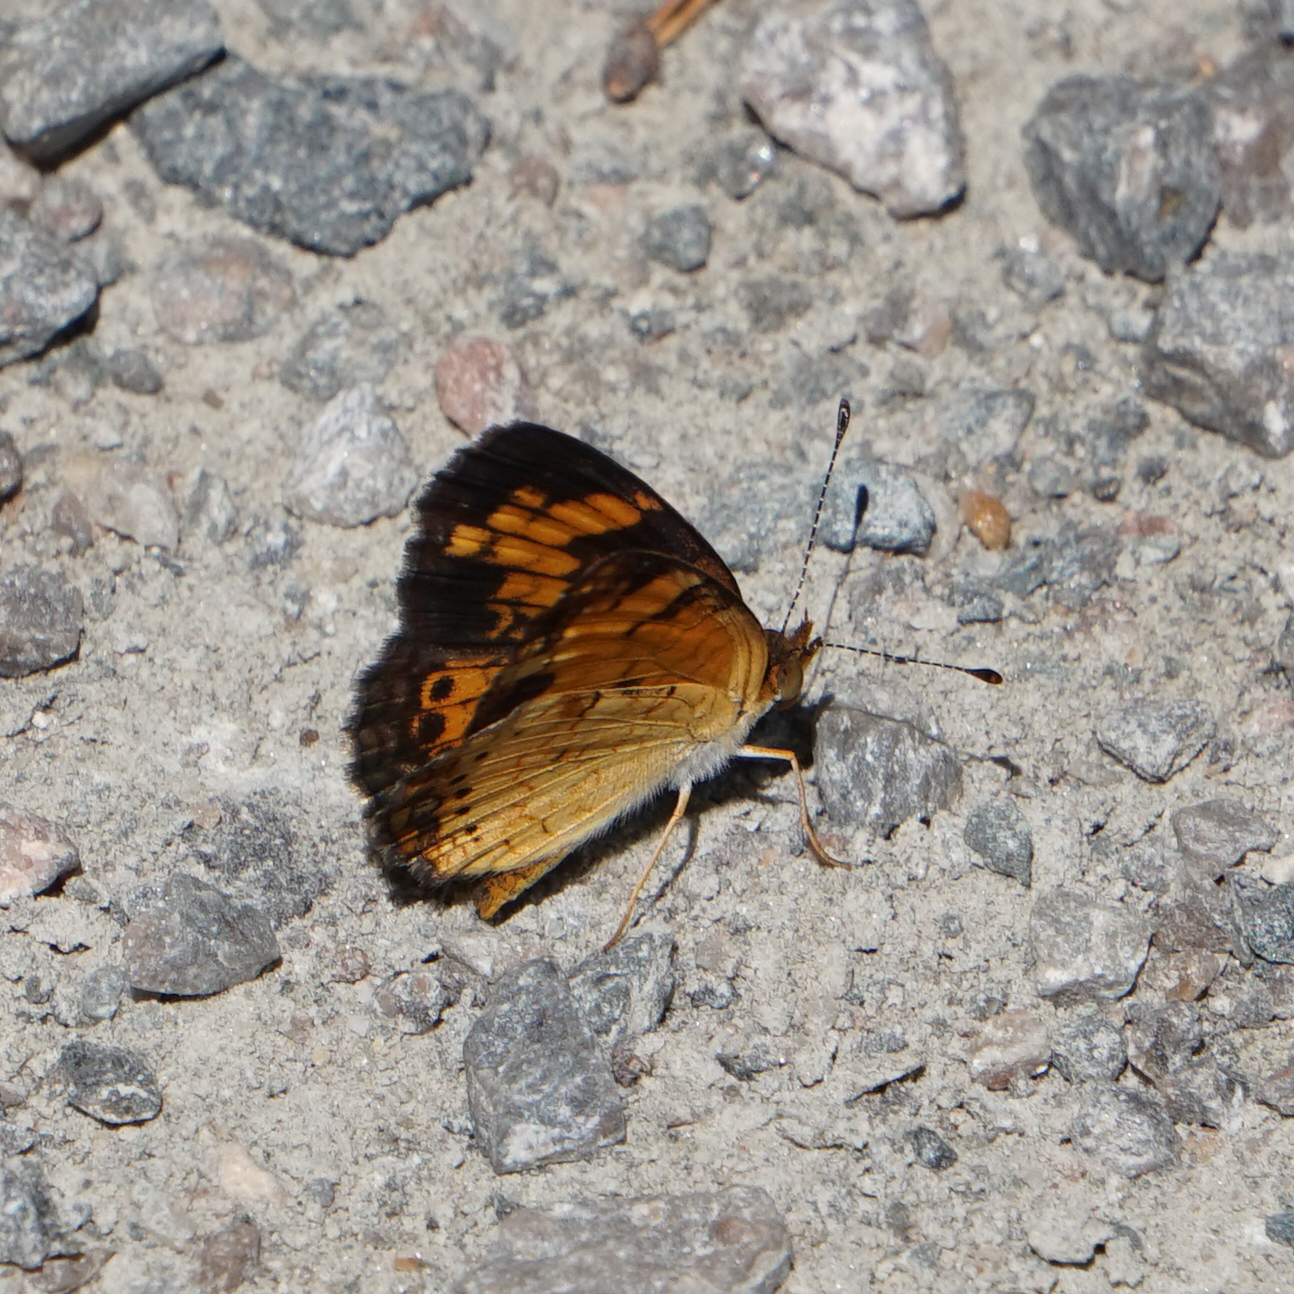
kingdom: Animalia
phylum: Arthropoda
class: Insecta
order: Lepidoptera
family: Nymphalidae
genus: Phyciodes
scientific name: Phyciodes tharos
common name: Pearl crescent
